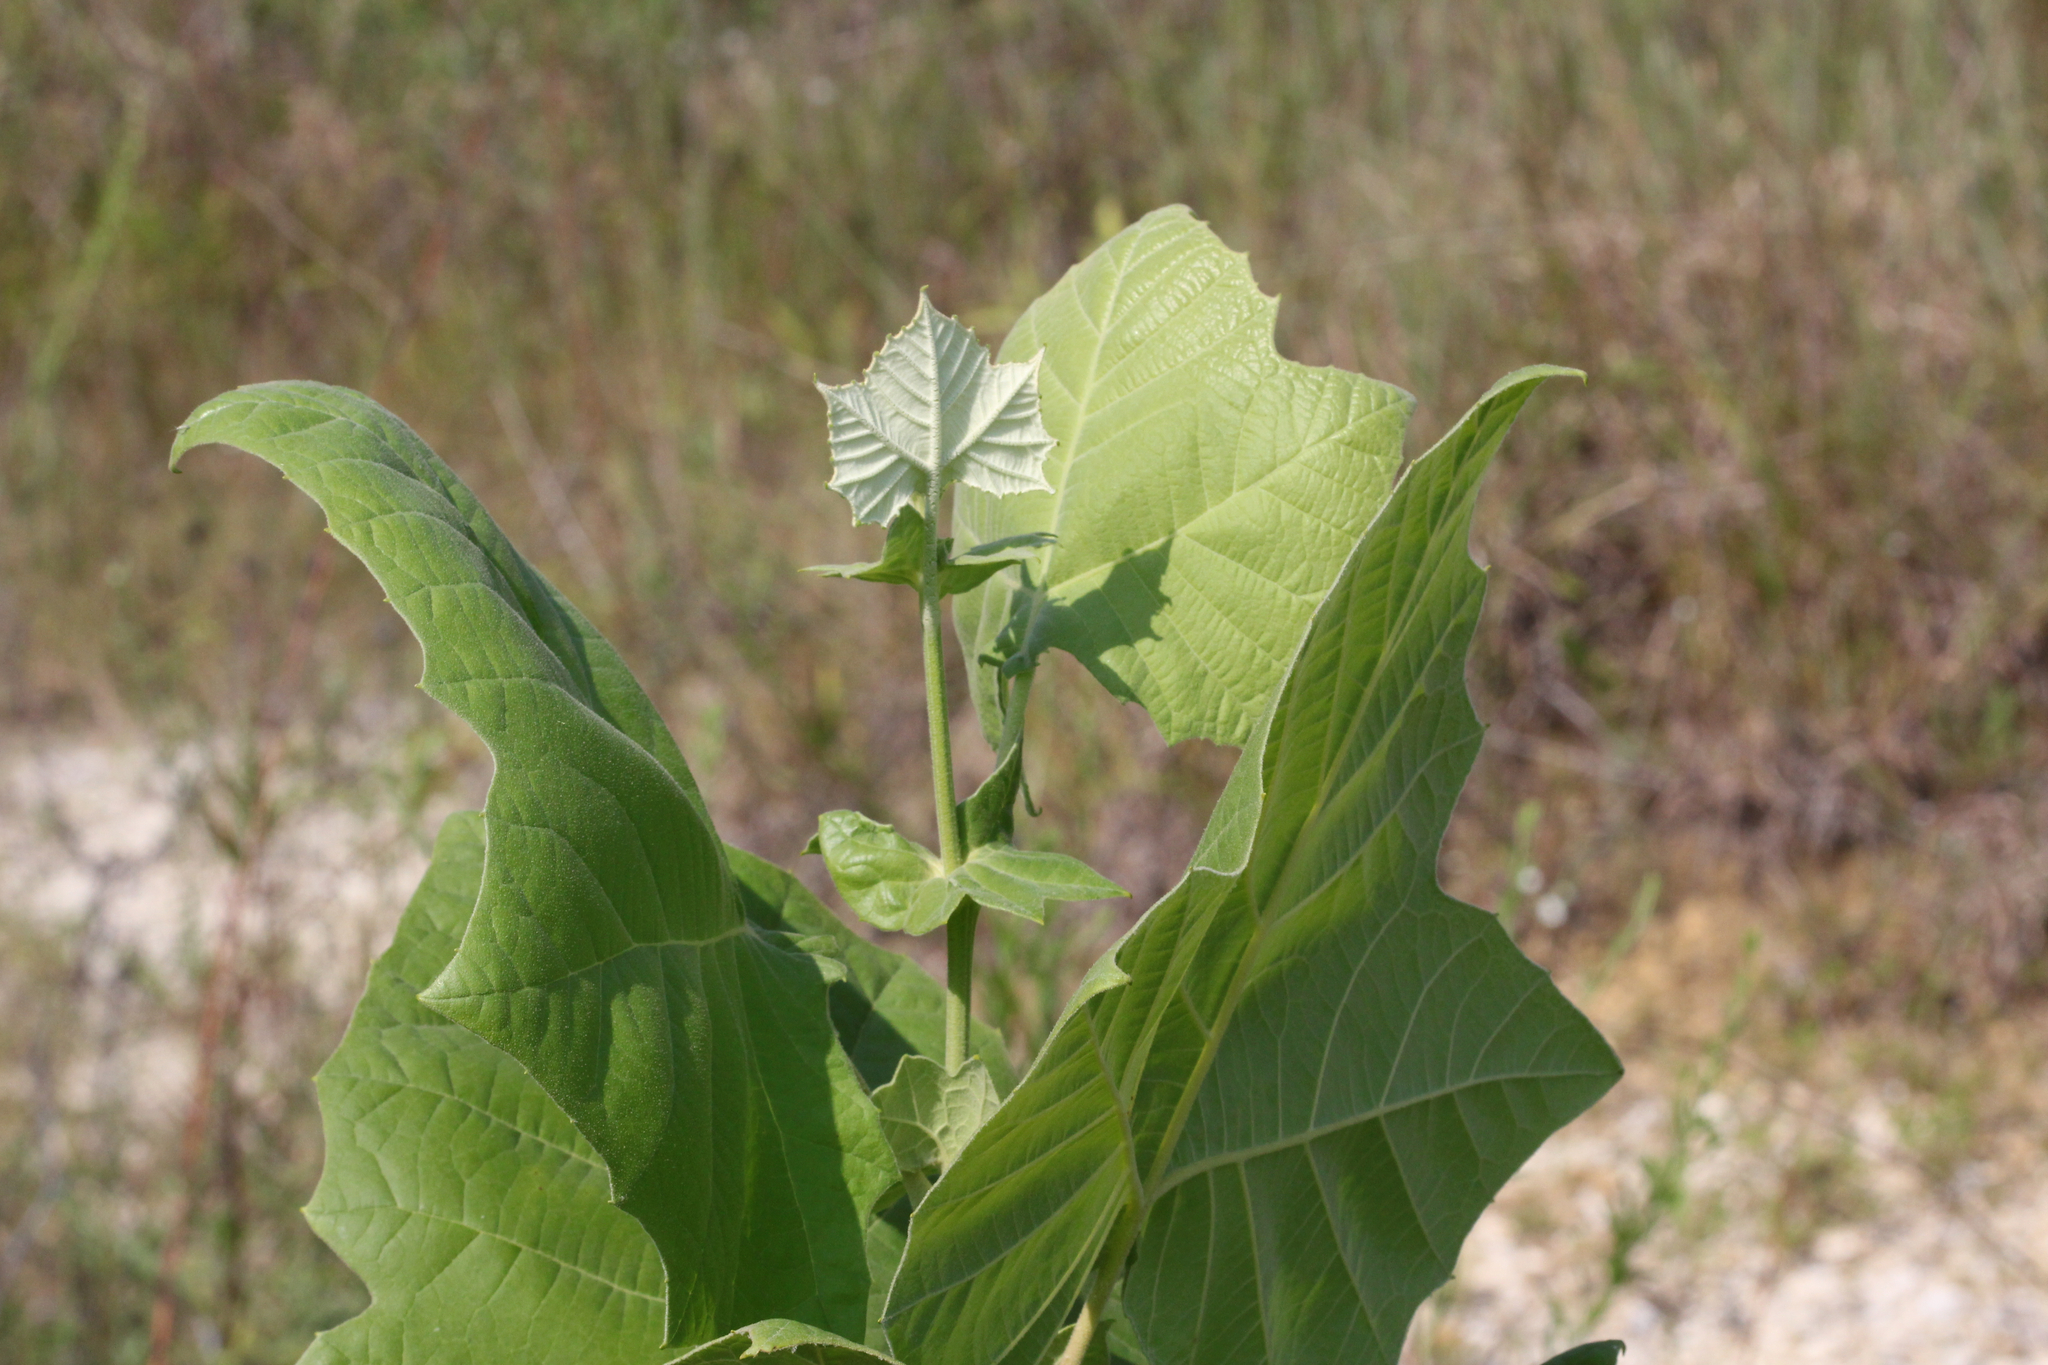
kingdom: Plantae
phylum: Tracheophyta
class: Magnoliopsida
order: Proteales
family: Platanaceae
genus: Platanus
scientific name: Platanus occidentalis
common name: American sycamore
